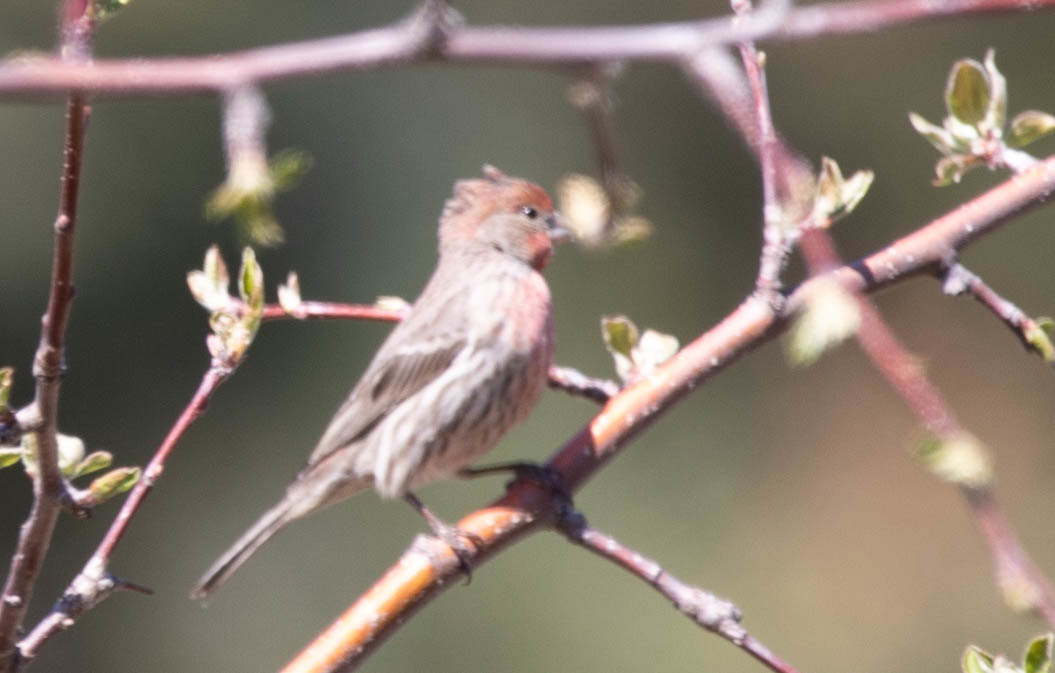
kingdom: Animalia
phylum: Chordata
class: Aves
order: Passeriformes
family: Fringillidae
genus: Haemorhous
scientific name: Haemorhous mexicanus
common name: House finch
